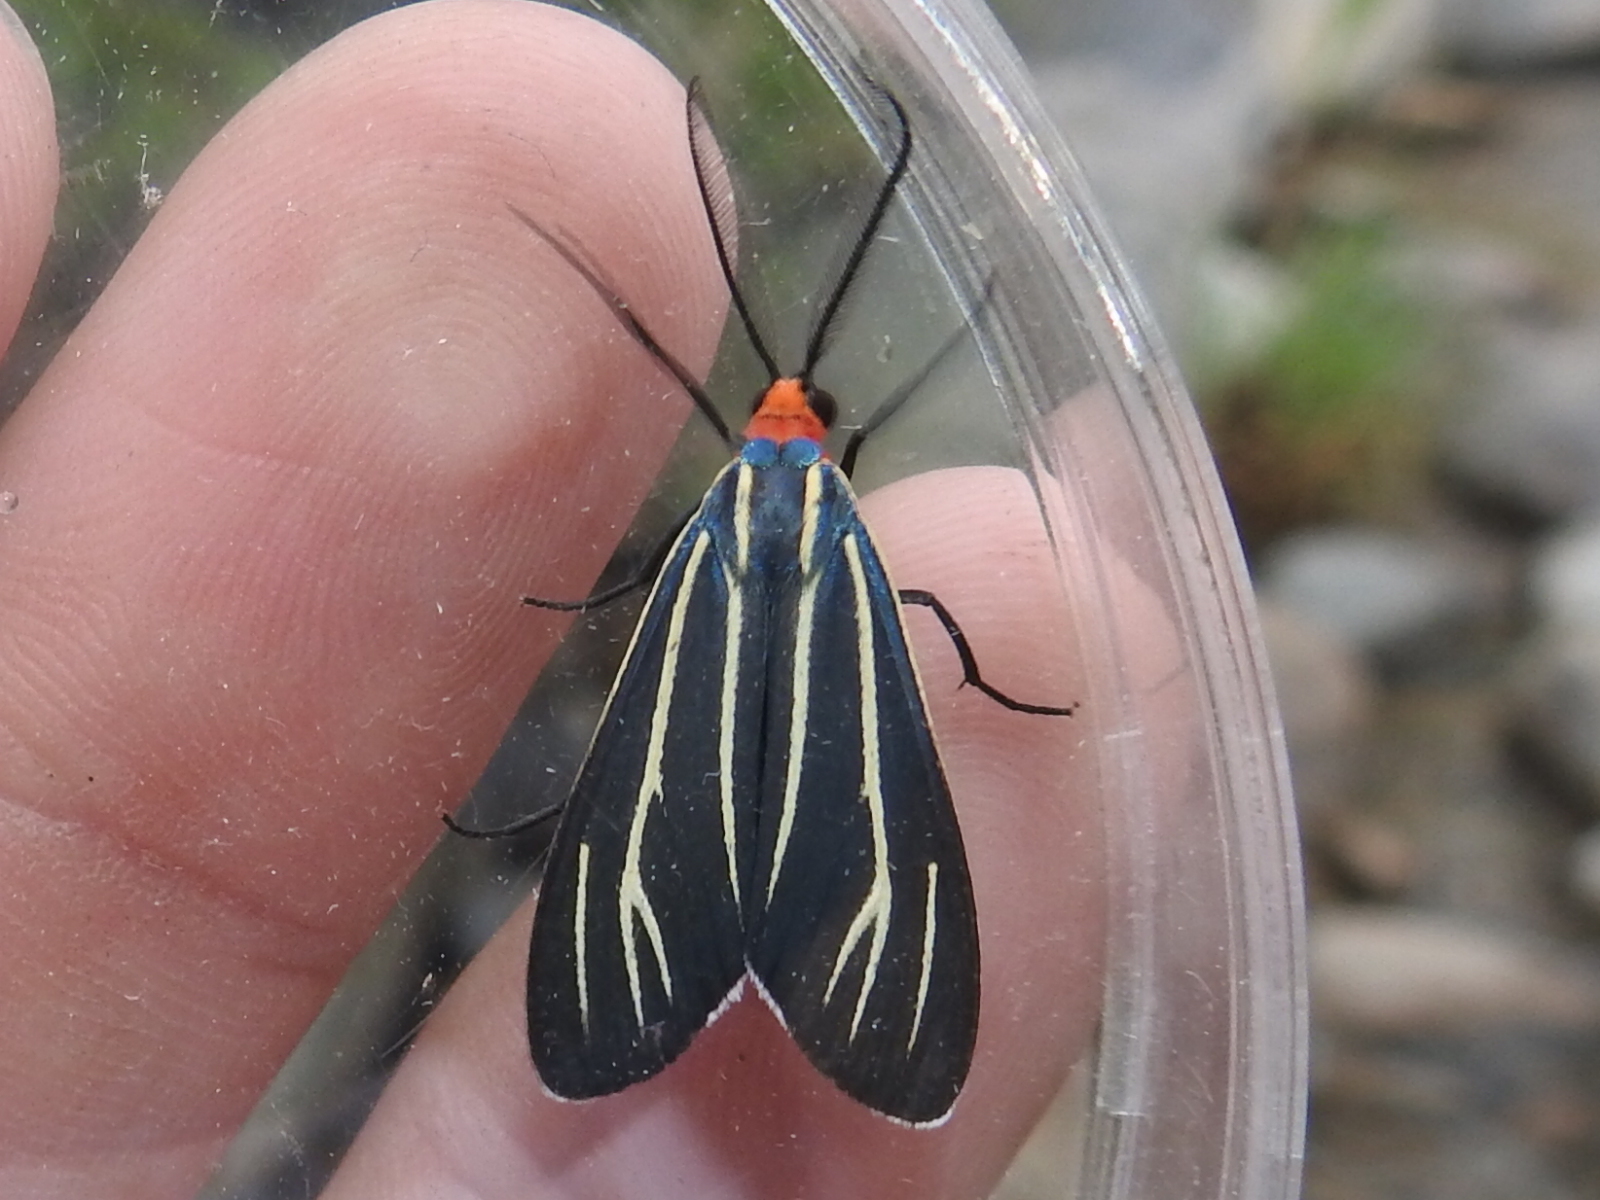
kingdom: Animalia
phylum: Arthropoda
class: Insecta
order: Lepidoptera
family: Erebidae
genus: Ctenucha
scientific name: Ctenucha venosa
